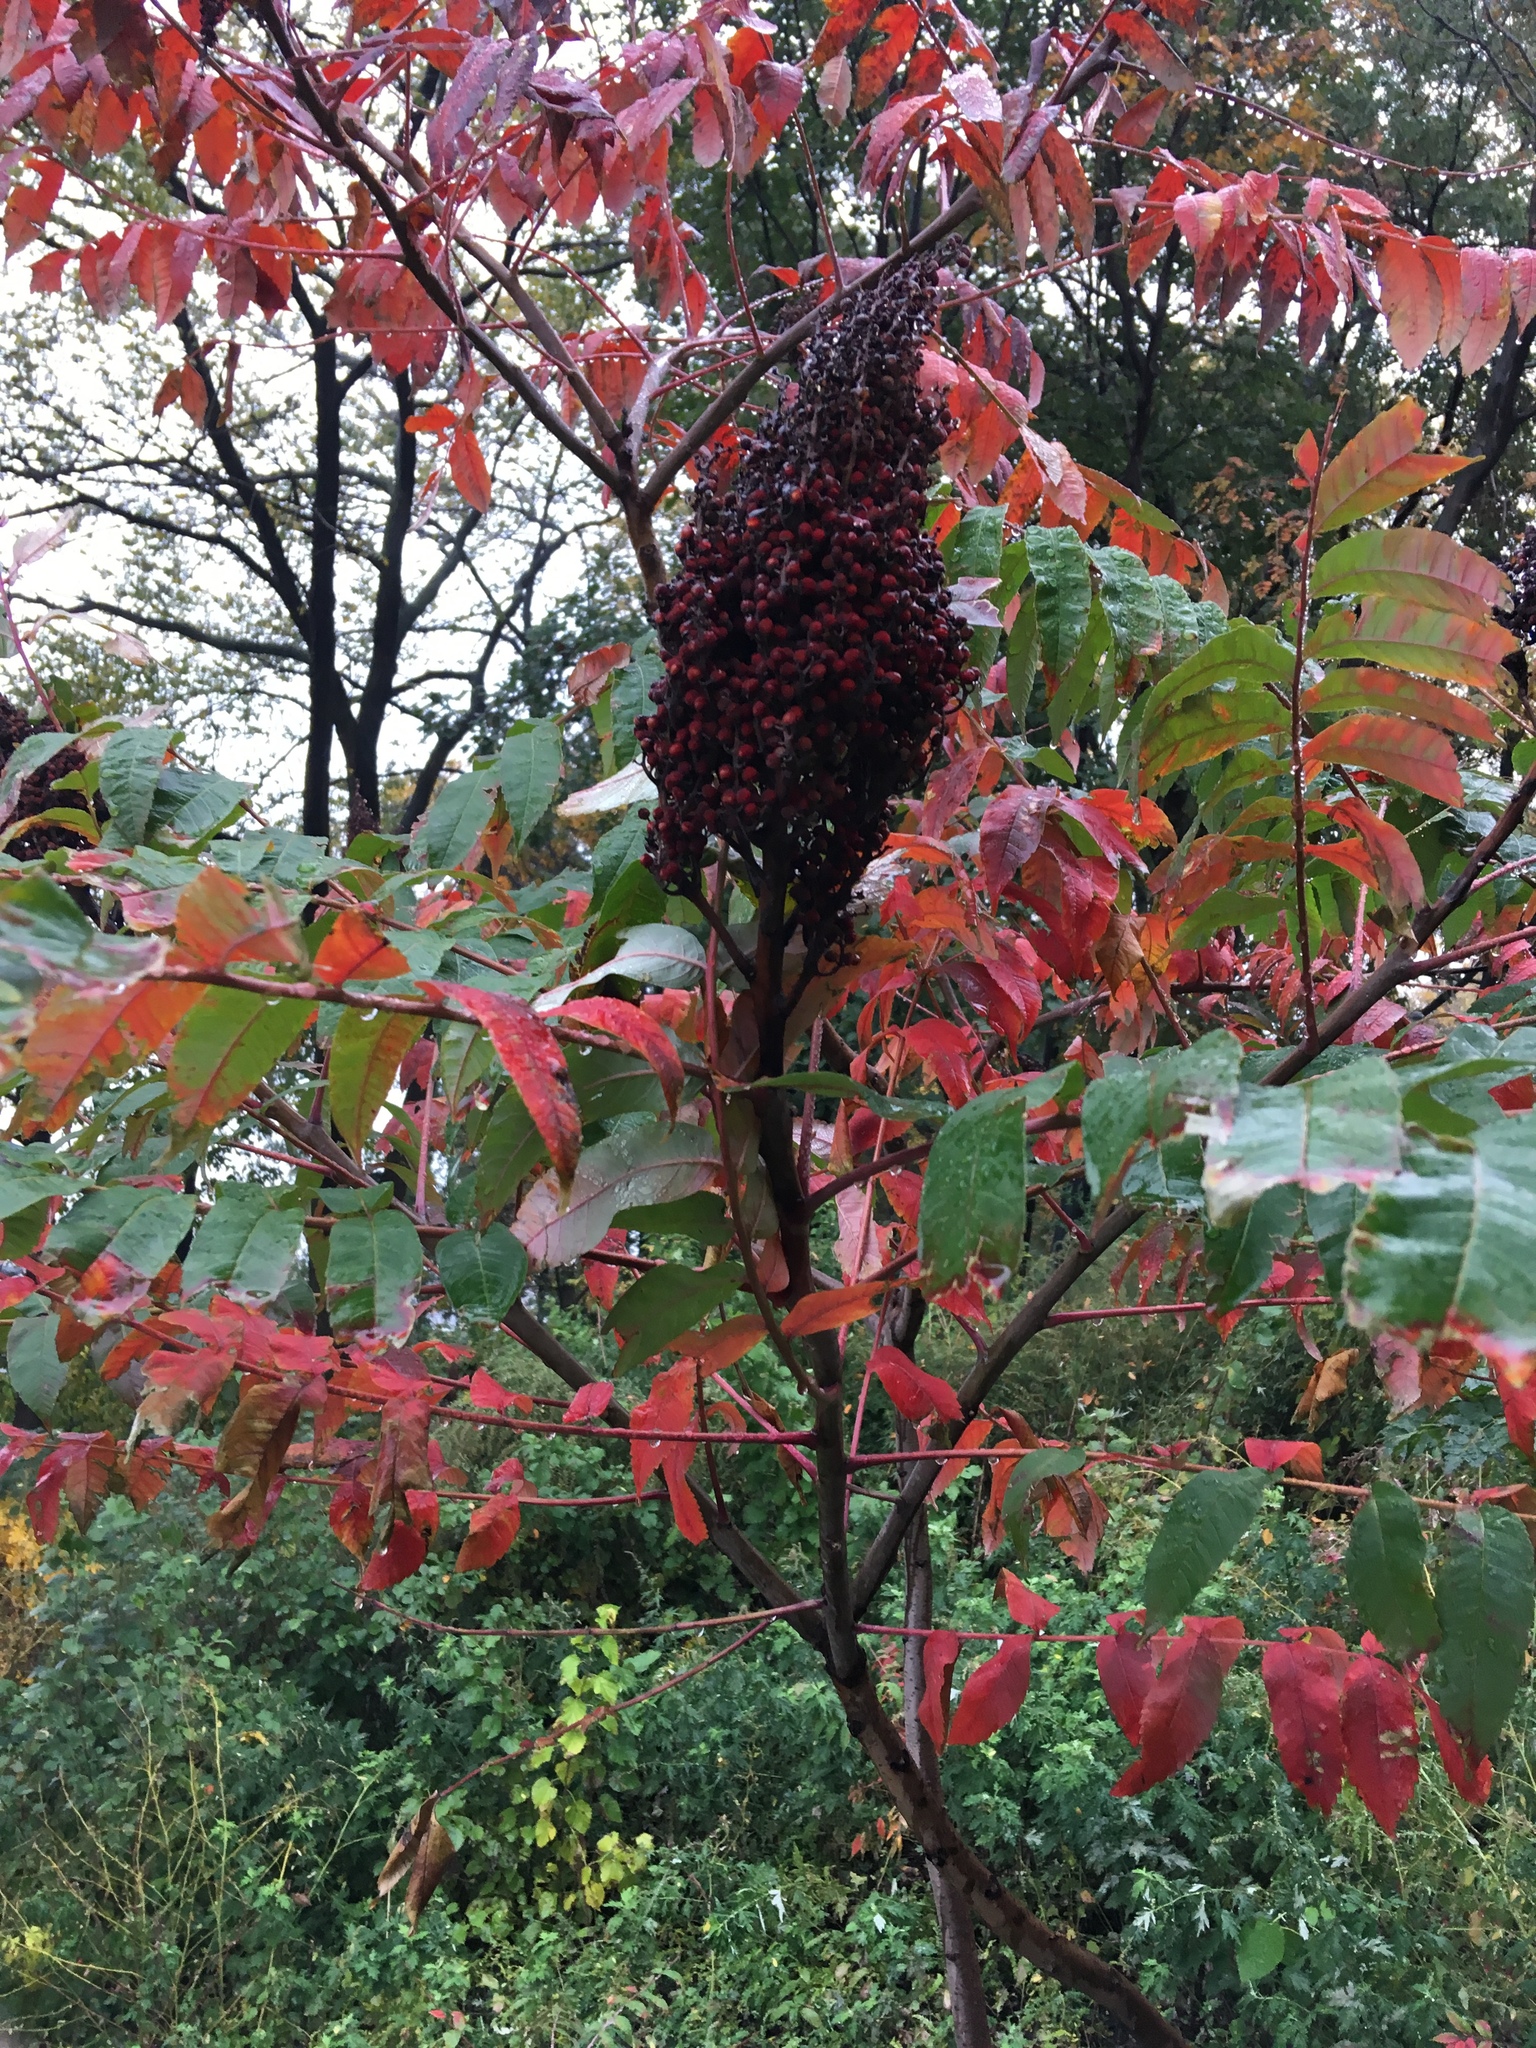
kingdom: Plantae
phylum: Tracheophyta
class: Magnoliopsida
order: Sapindales
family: Anacardiaceae
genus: Rhus
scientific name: Rhus glabra
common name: Scarlet sumac
